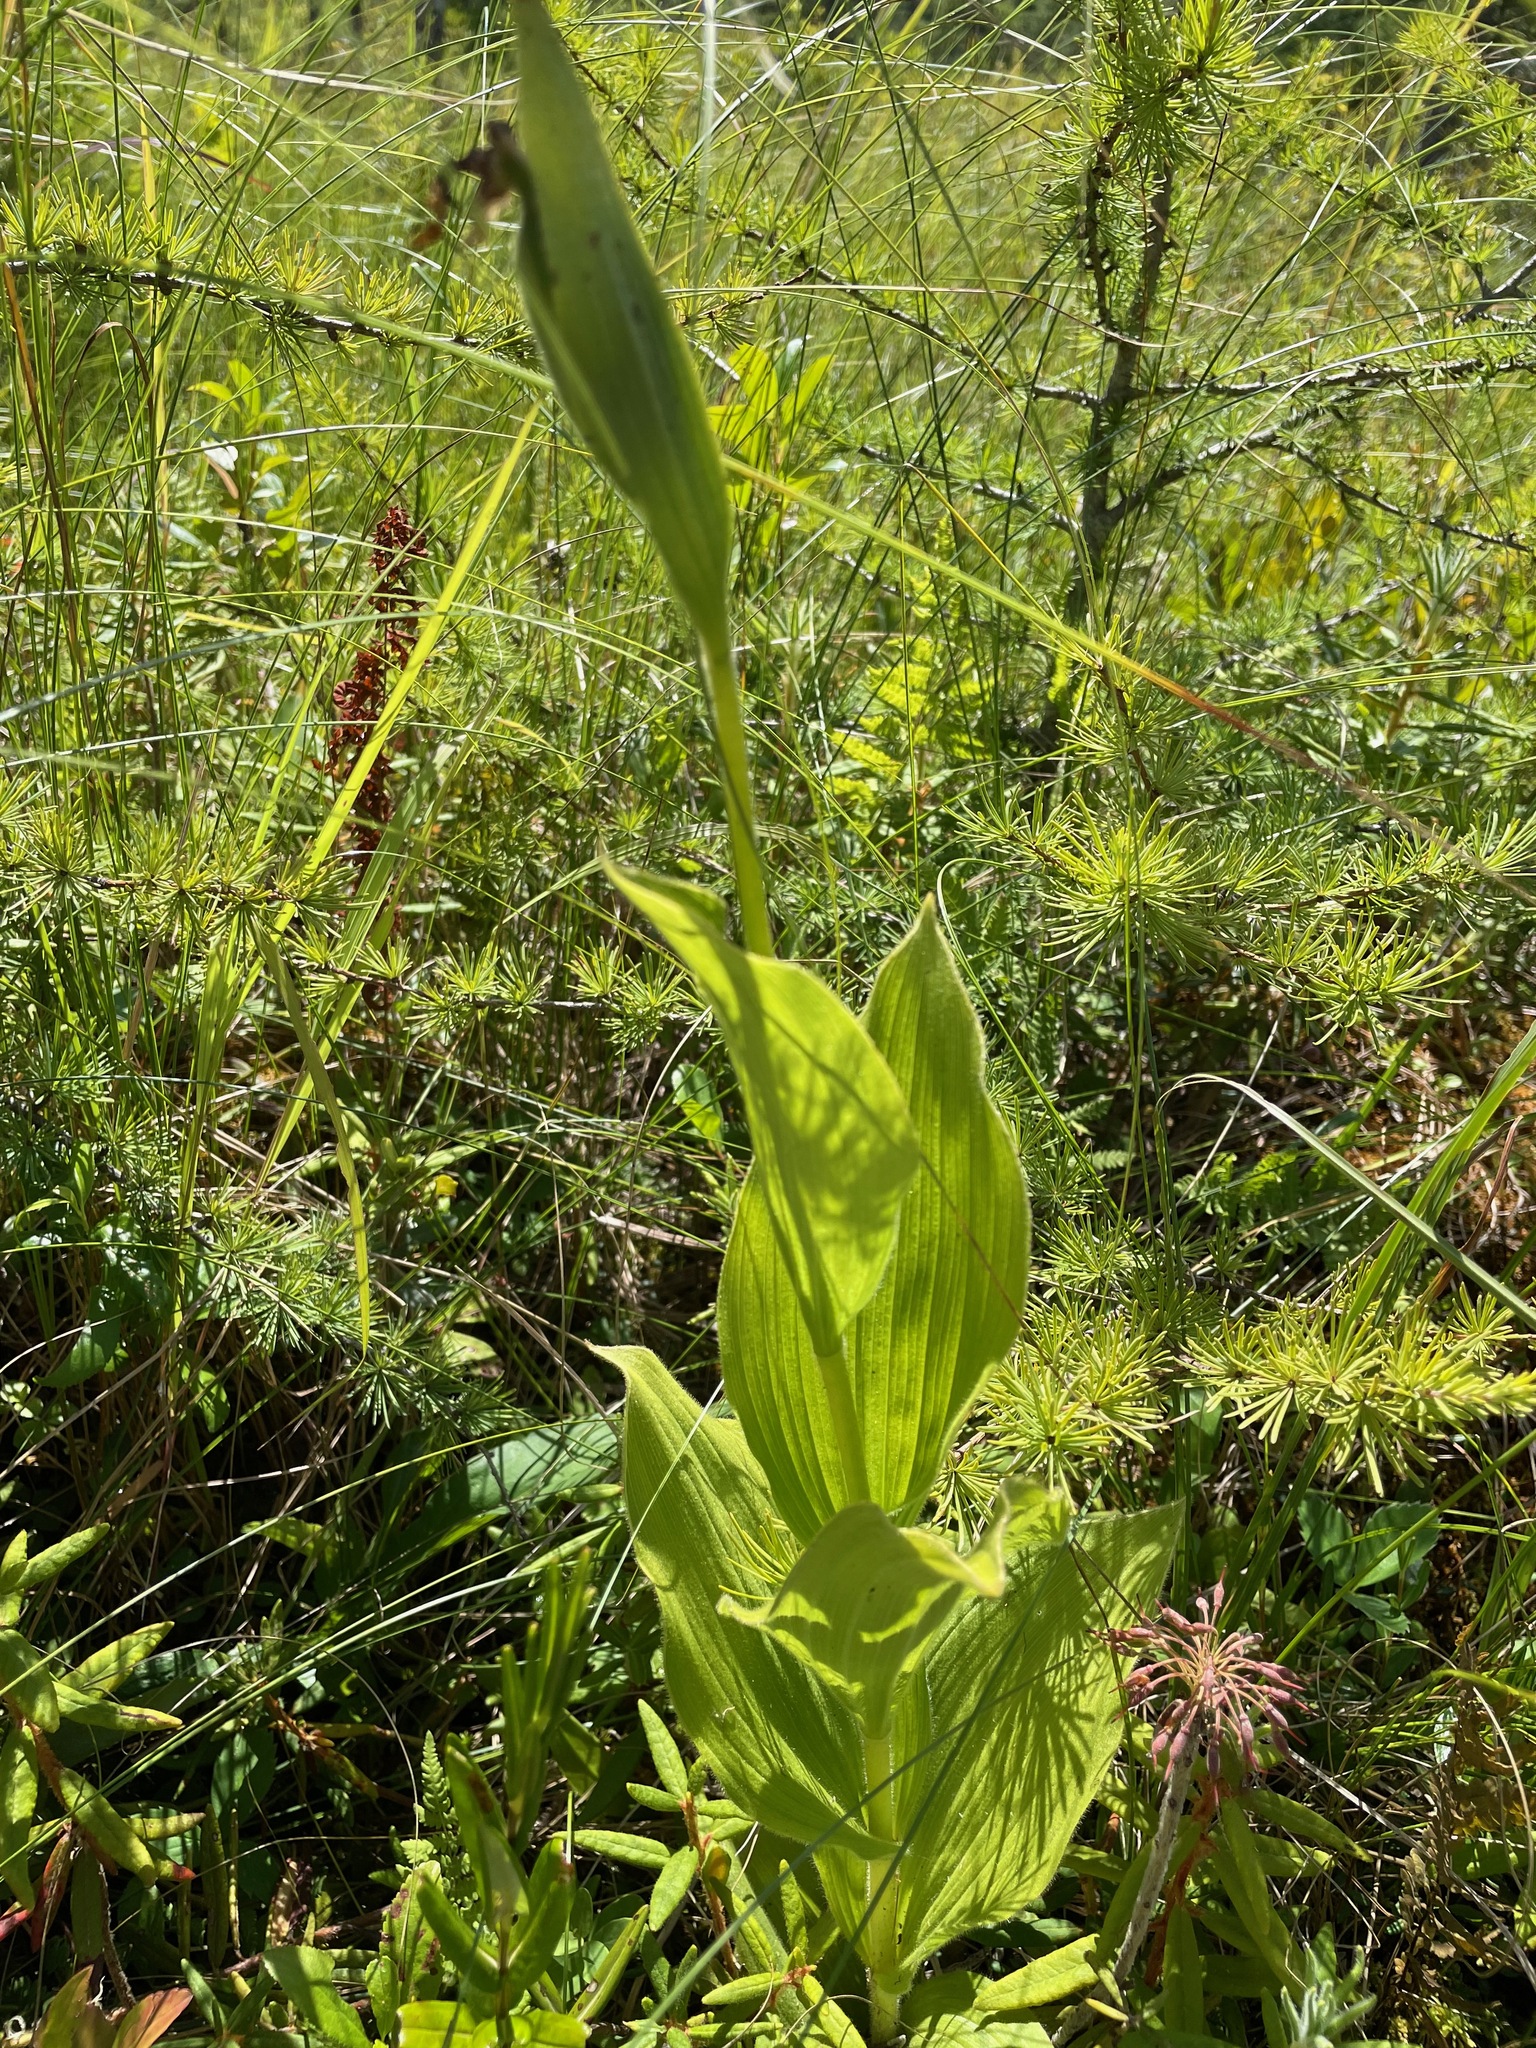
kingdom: Plantae
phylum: Tracheophyta
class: Liliopsida
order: Asparagales
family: Orchidaceae
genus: Cypripedium
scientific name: Cypripedium reginae
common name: Queen lady's-slipper
